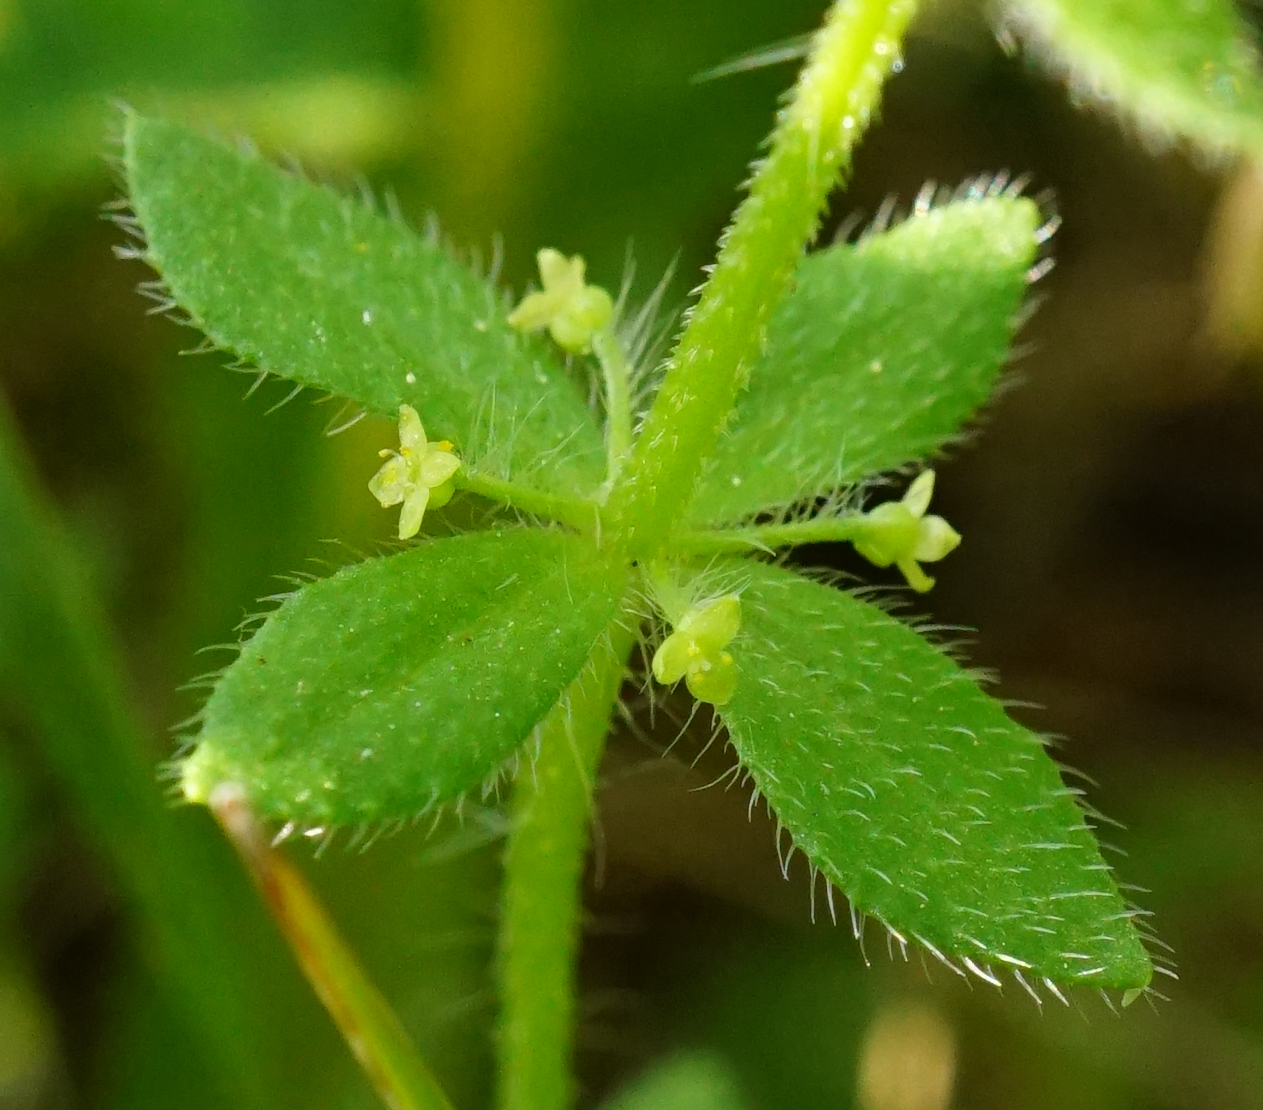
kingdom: Plantae
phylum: Tracheophyta
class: Magnoliopsida
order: Gentianales
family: Rubiaceae
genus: Cruciata
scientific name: Cruciata pedemontana
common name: Piedmont bedstraw
